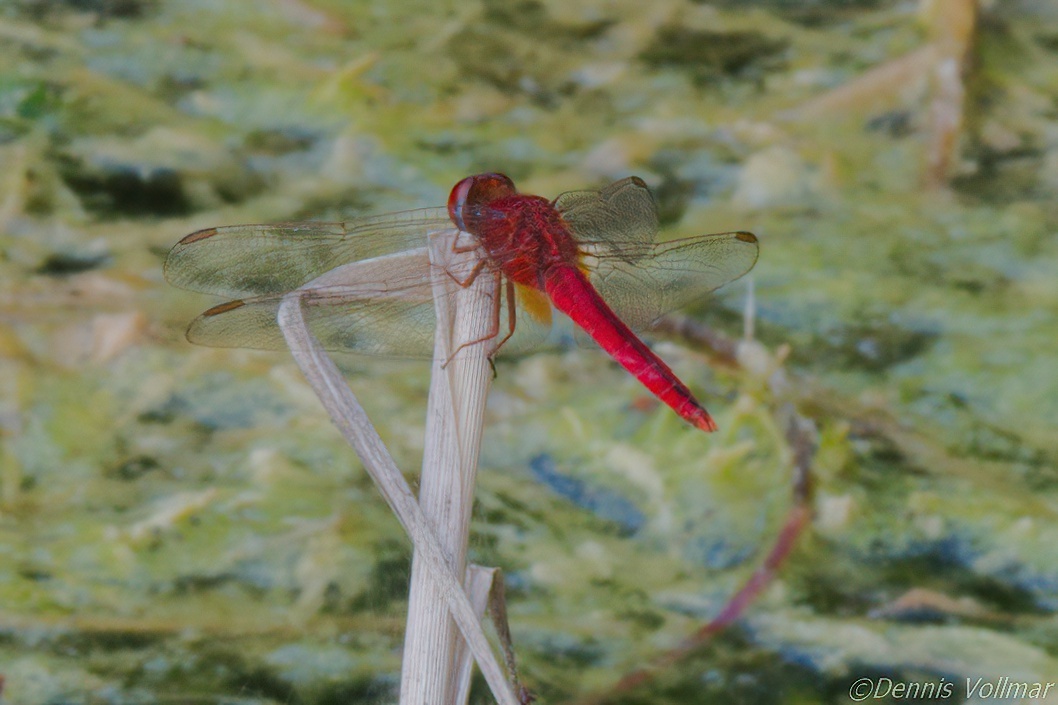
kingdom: Animalia
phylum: Arthropoda
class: Insecta
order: Odonata
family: Libellulidae
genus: Crocothemis
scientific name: Crocothemis servilia
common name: Scarlet skimmer
